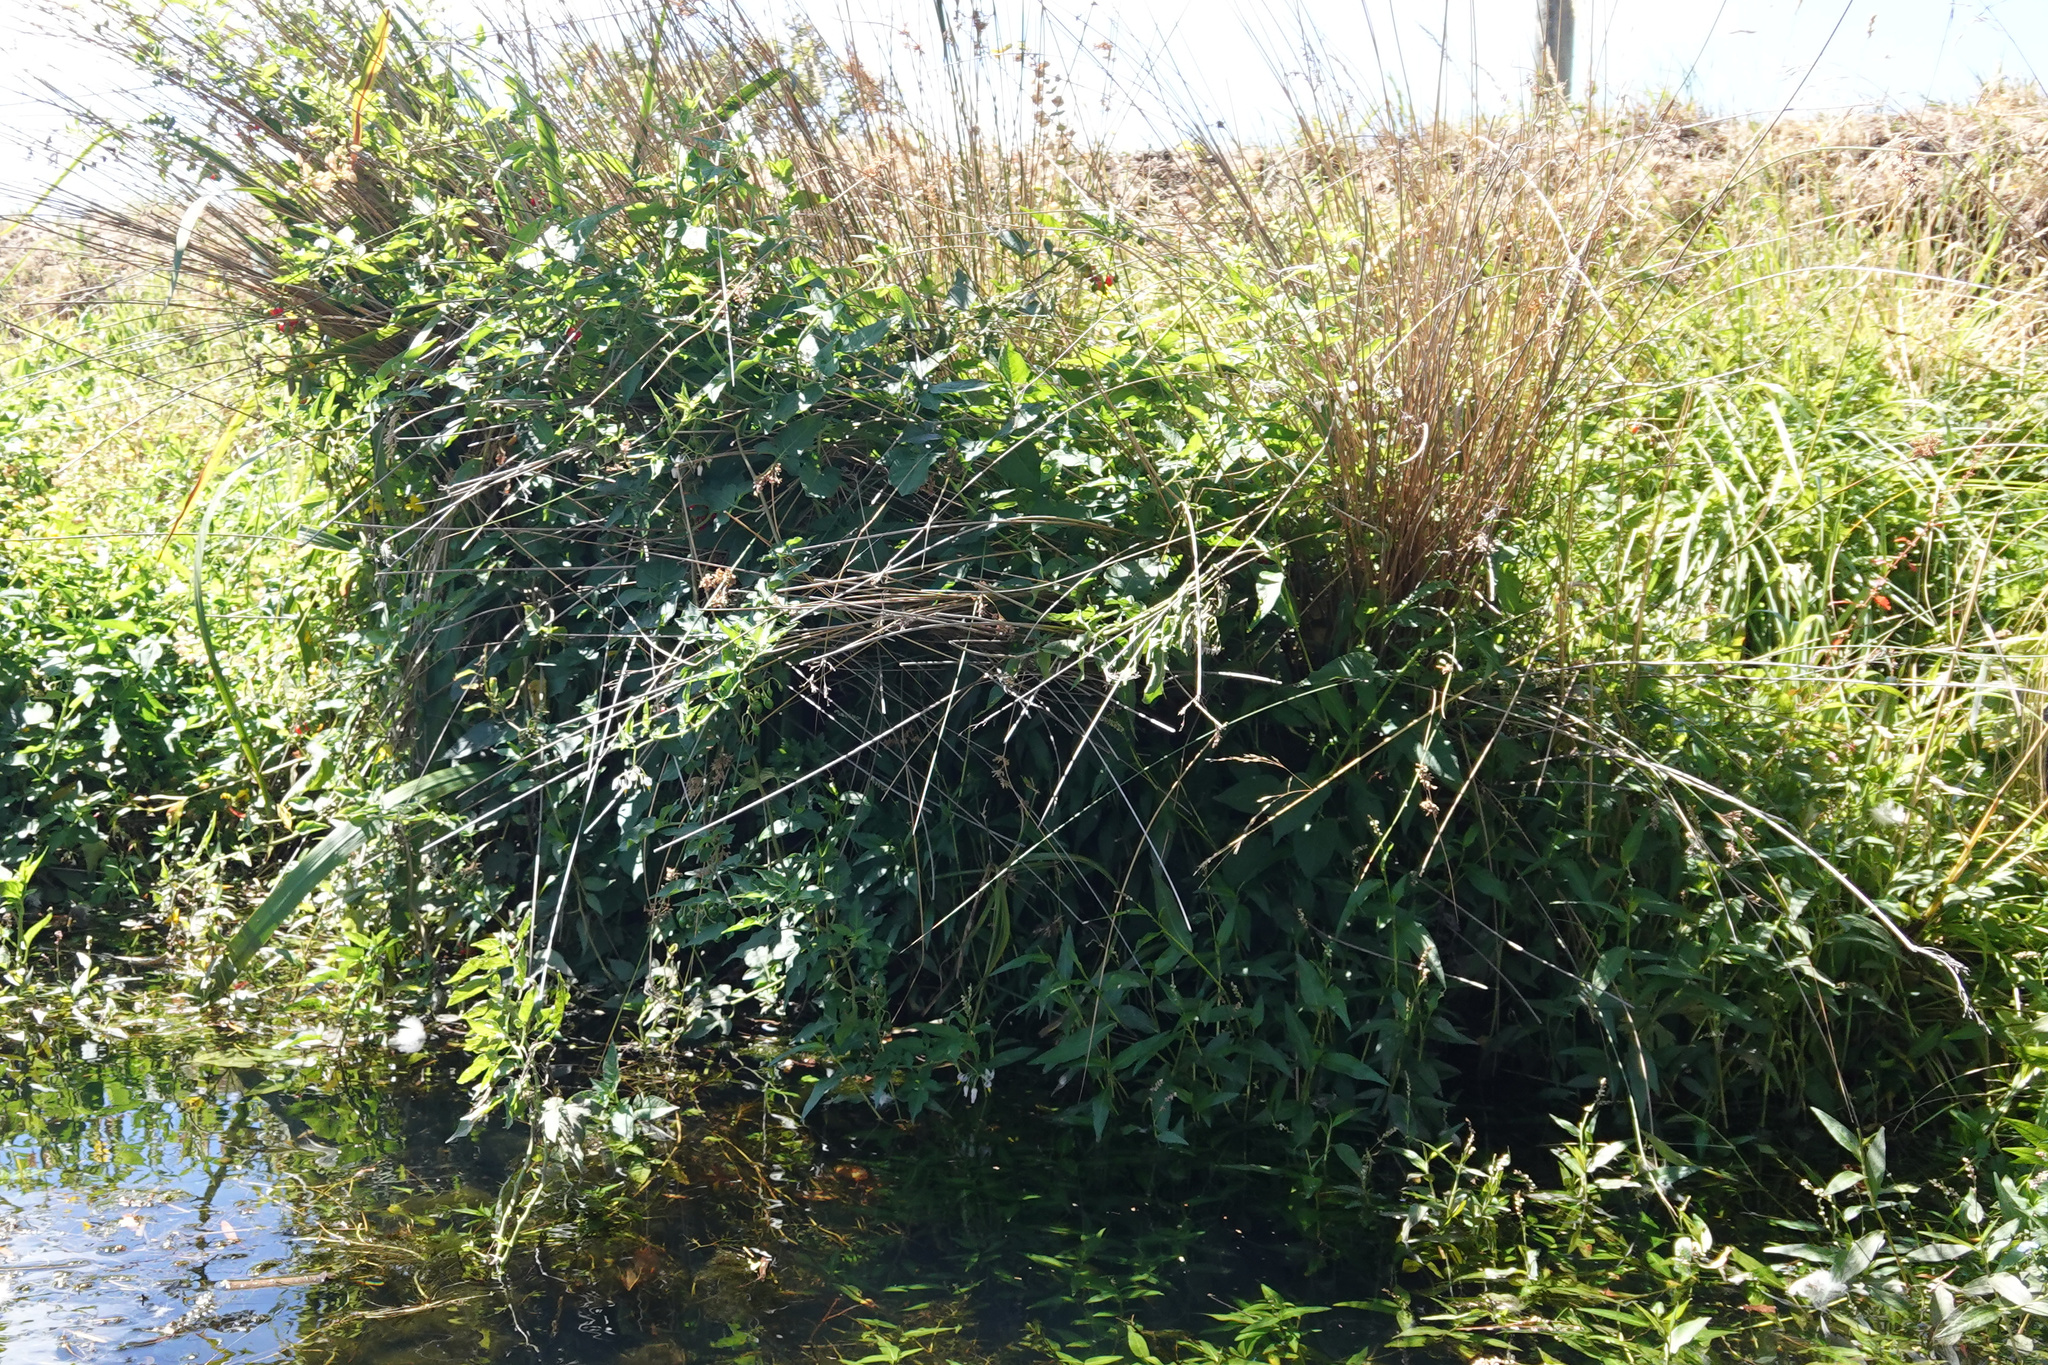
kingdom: Plantae
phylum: Tracheophyta
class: Magnoliopsida
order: Solanales
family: Solanaceae
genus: Solanum
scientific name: Solanum dulcamara
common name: Climbing nightshade
